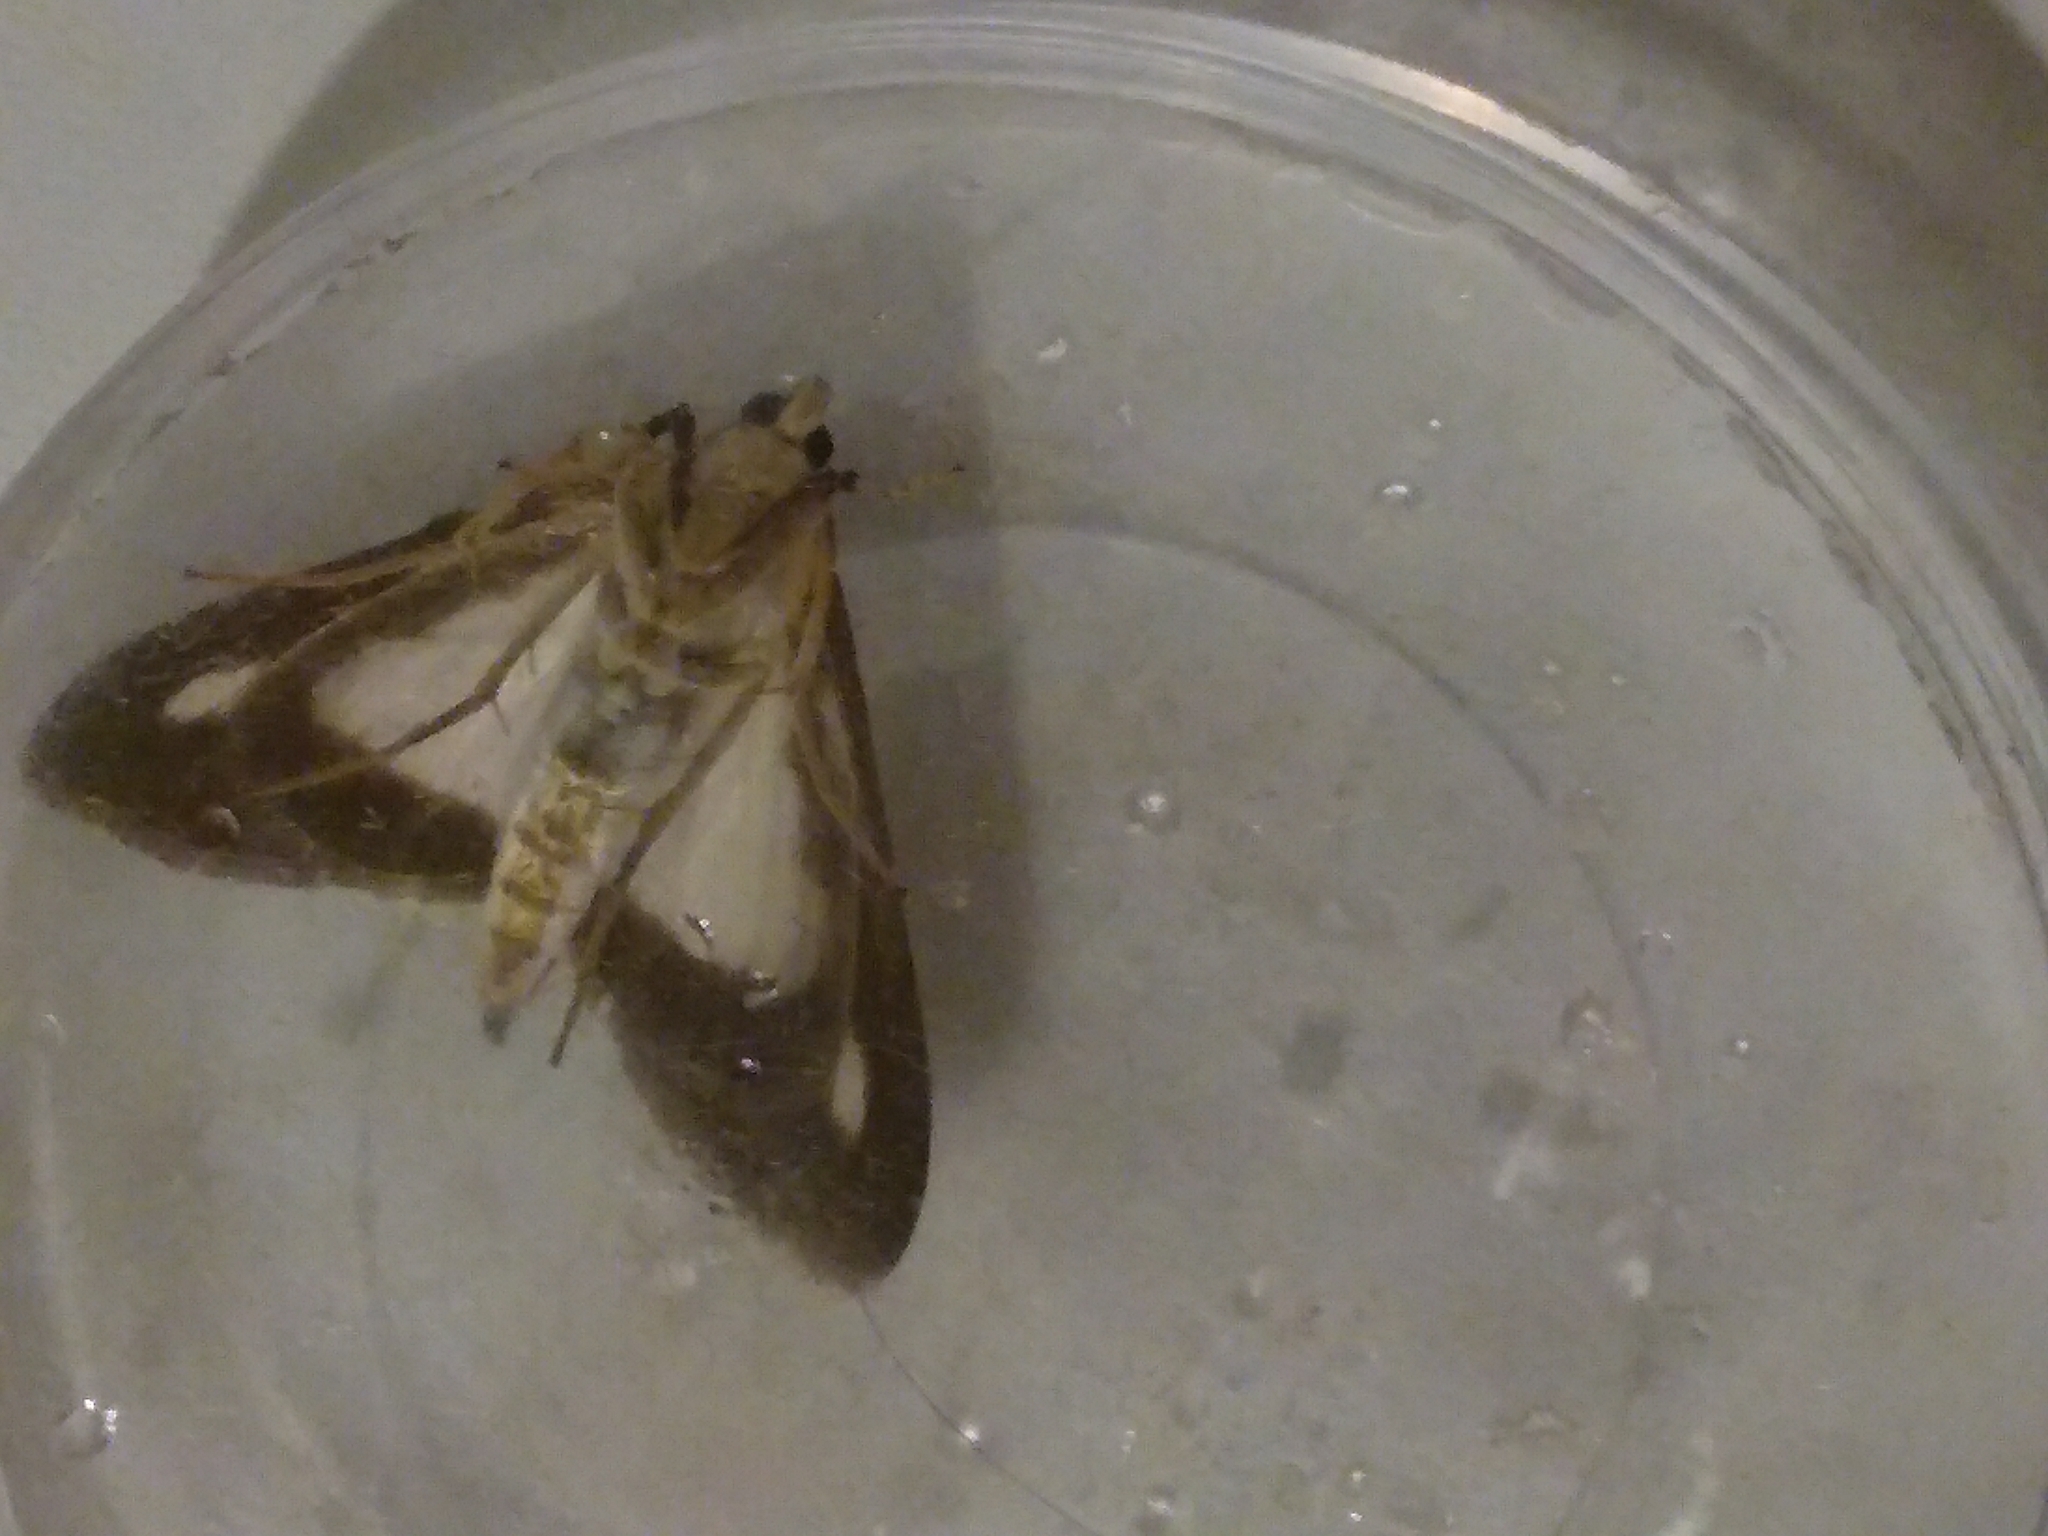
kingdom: Animalia
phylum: Arthropoda
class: Insecta
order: Lepidoptera
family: Crambidae
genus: Cydalima
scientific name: Cydalima perspectalis
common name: Box tree moth
